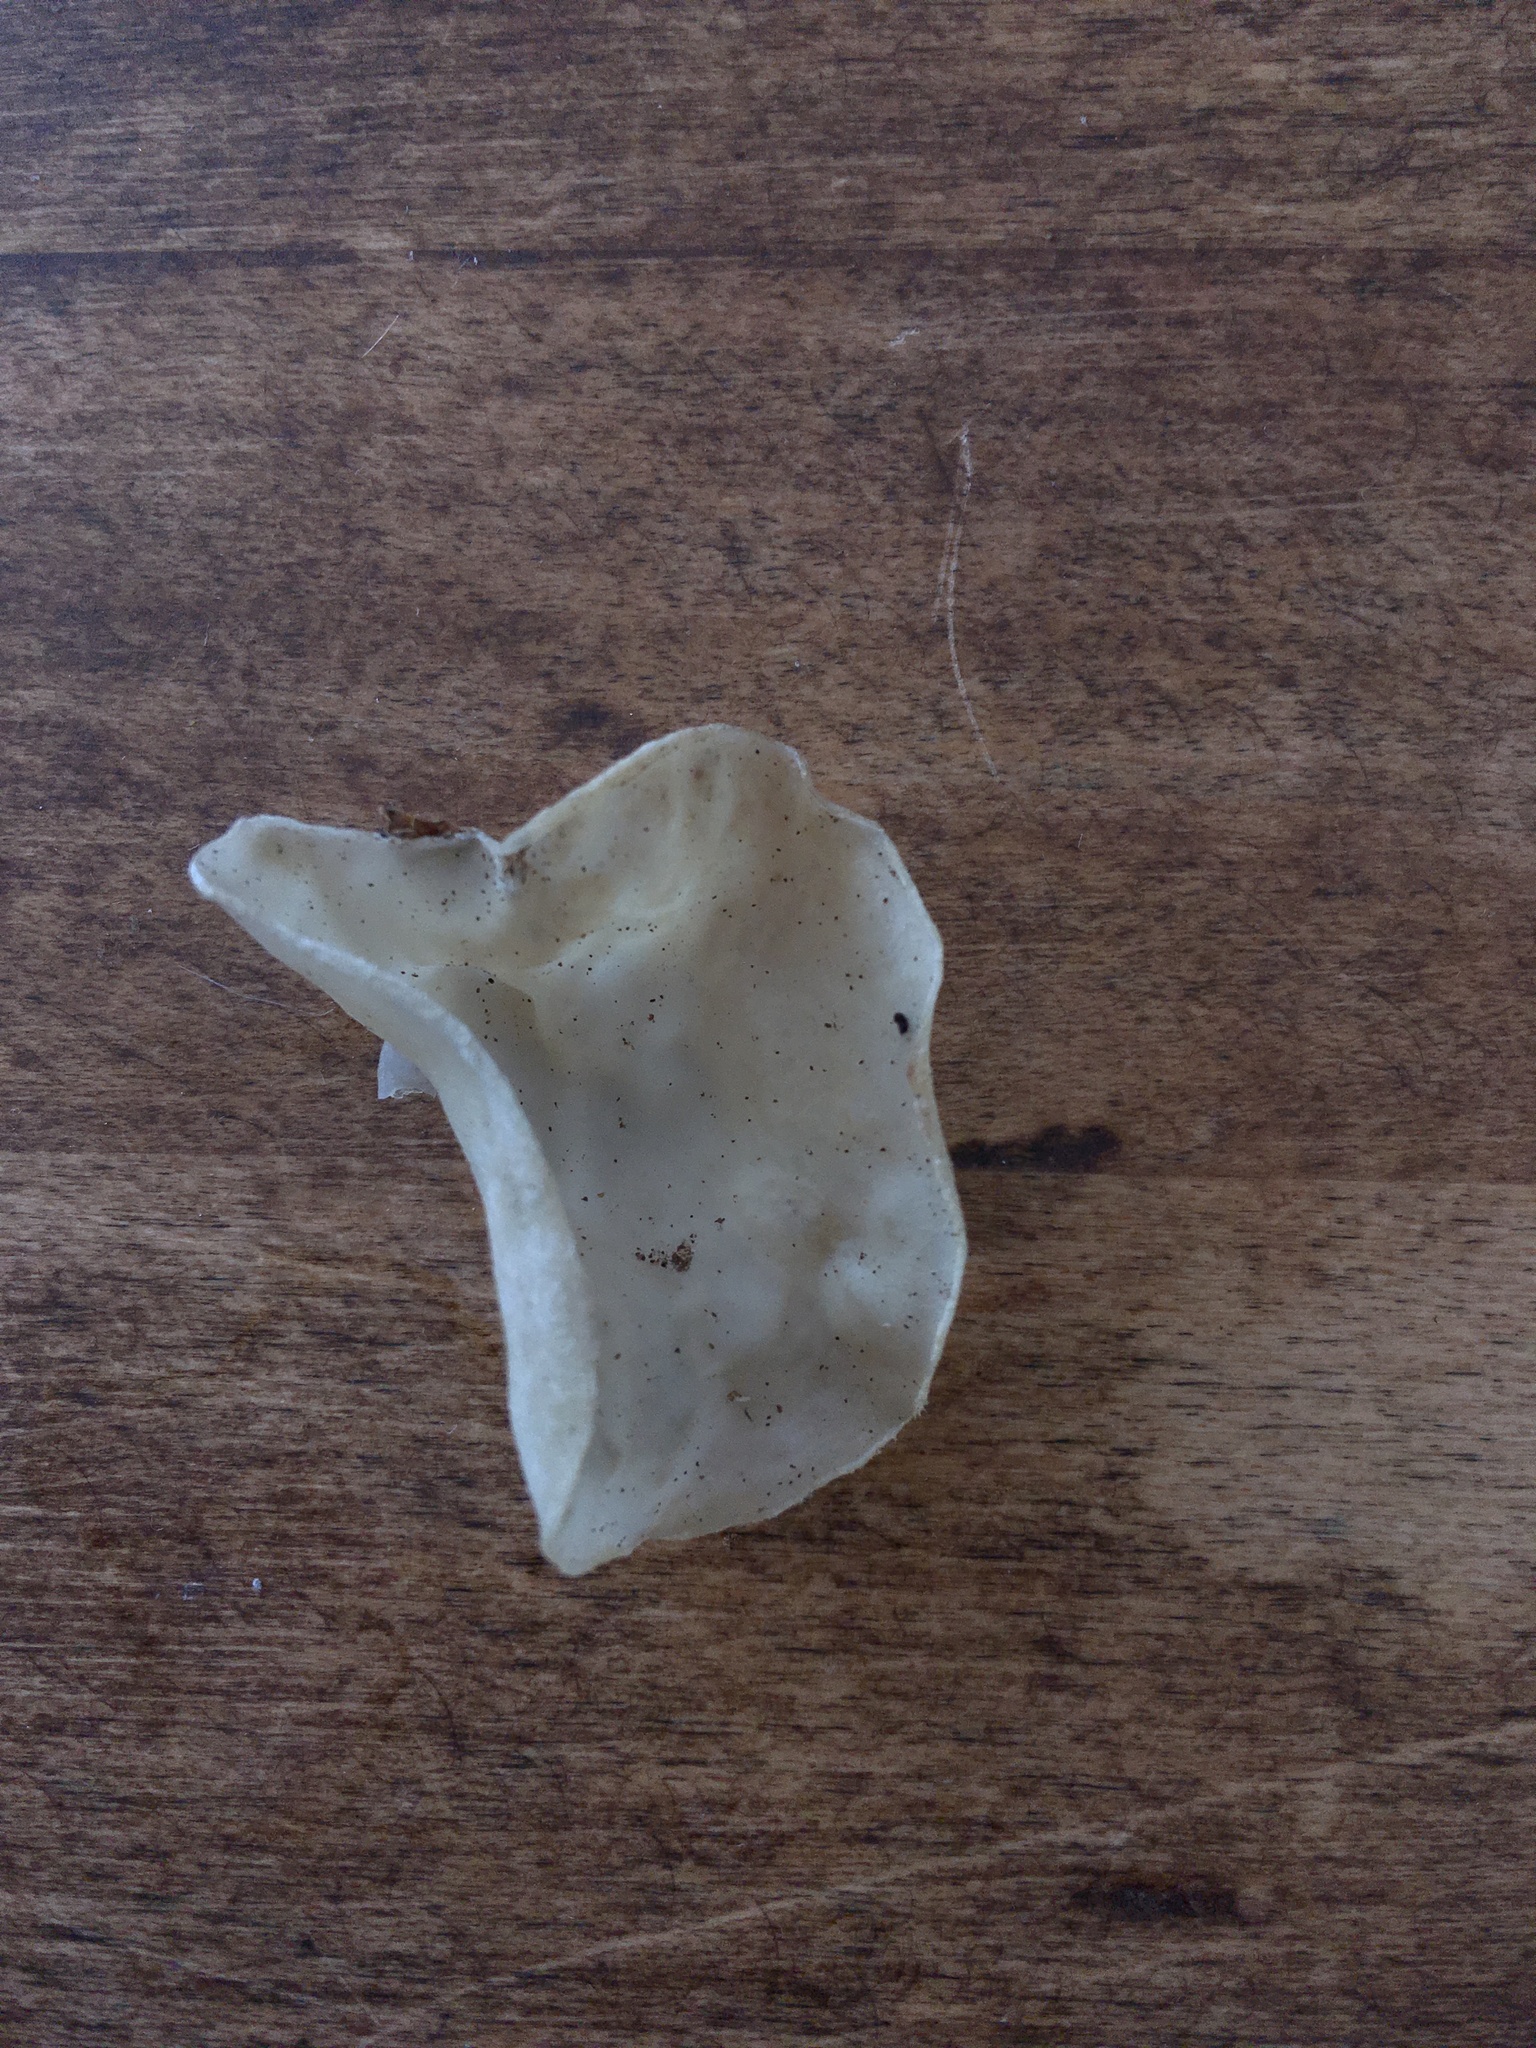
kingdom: Fungi
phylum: Basidiomycota
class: Agaricomycetes
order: Auriculariales
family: Auriculariaceae
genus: Auricularia
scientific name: Auricularia cornea
